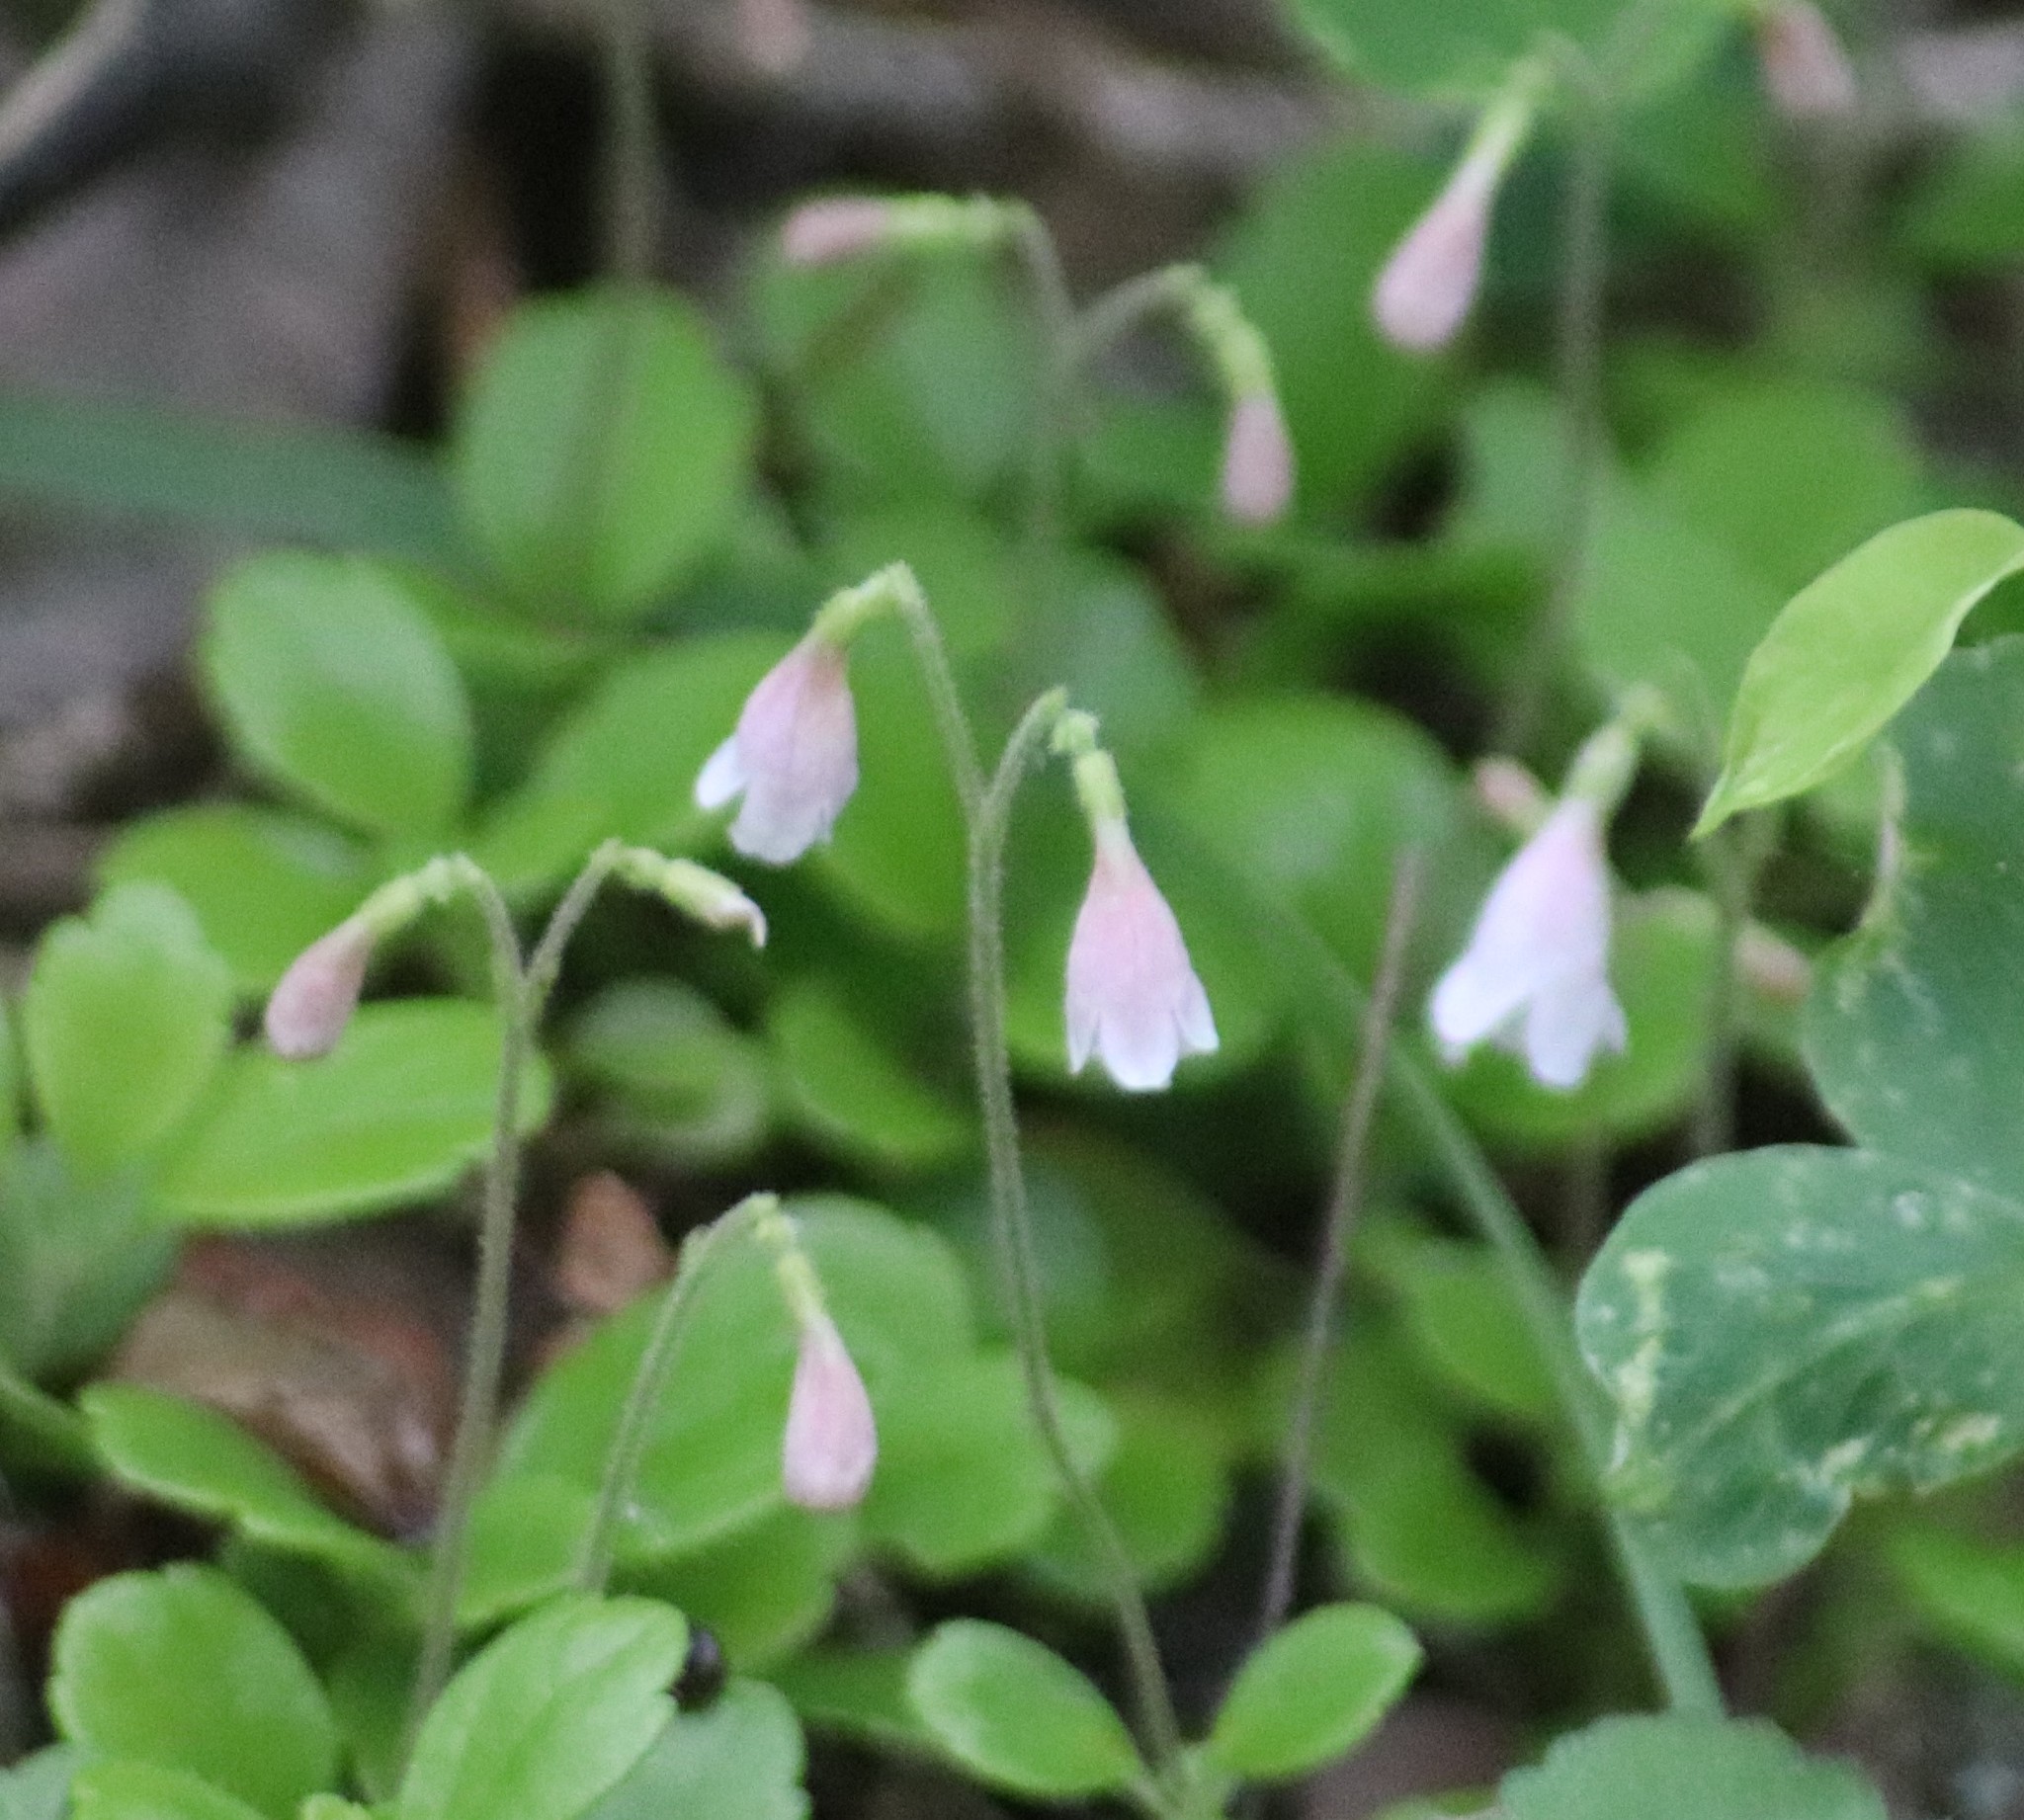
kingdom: Plantae
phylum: Tracheophyta
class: Magnoliopsida
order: Dipsacales
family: Caprifoliaceae
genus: Linnaea
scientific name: Linnaea borealis
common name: Twinflower
